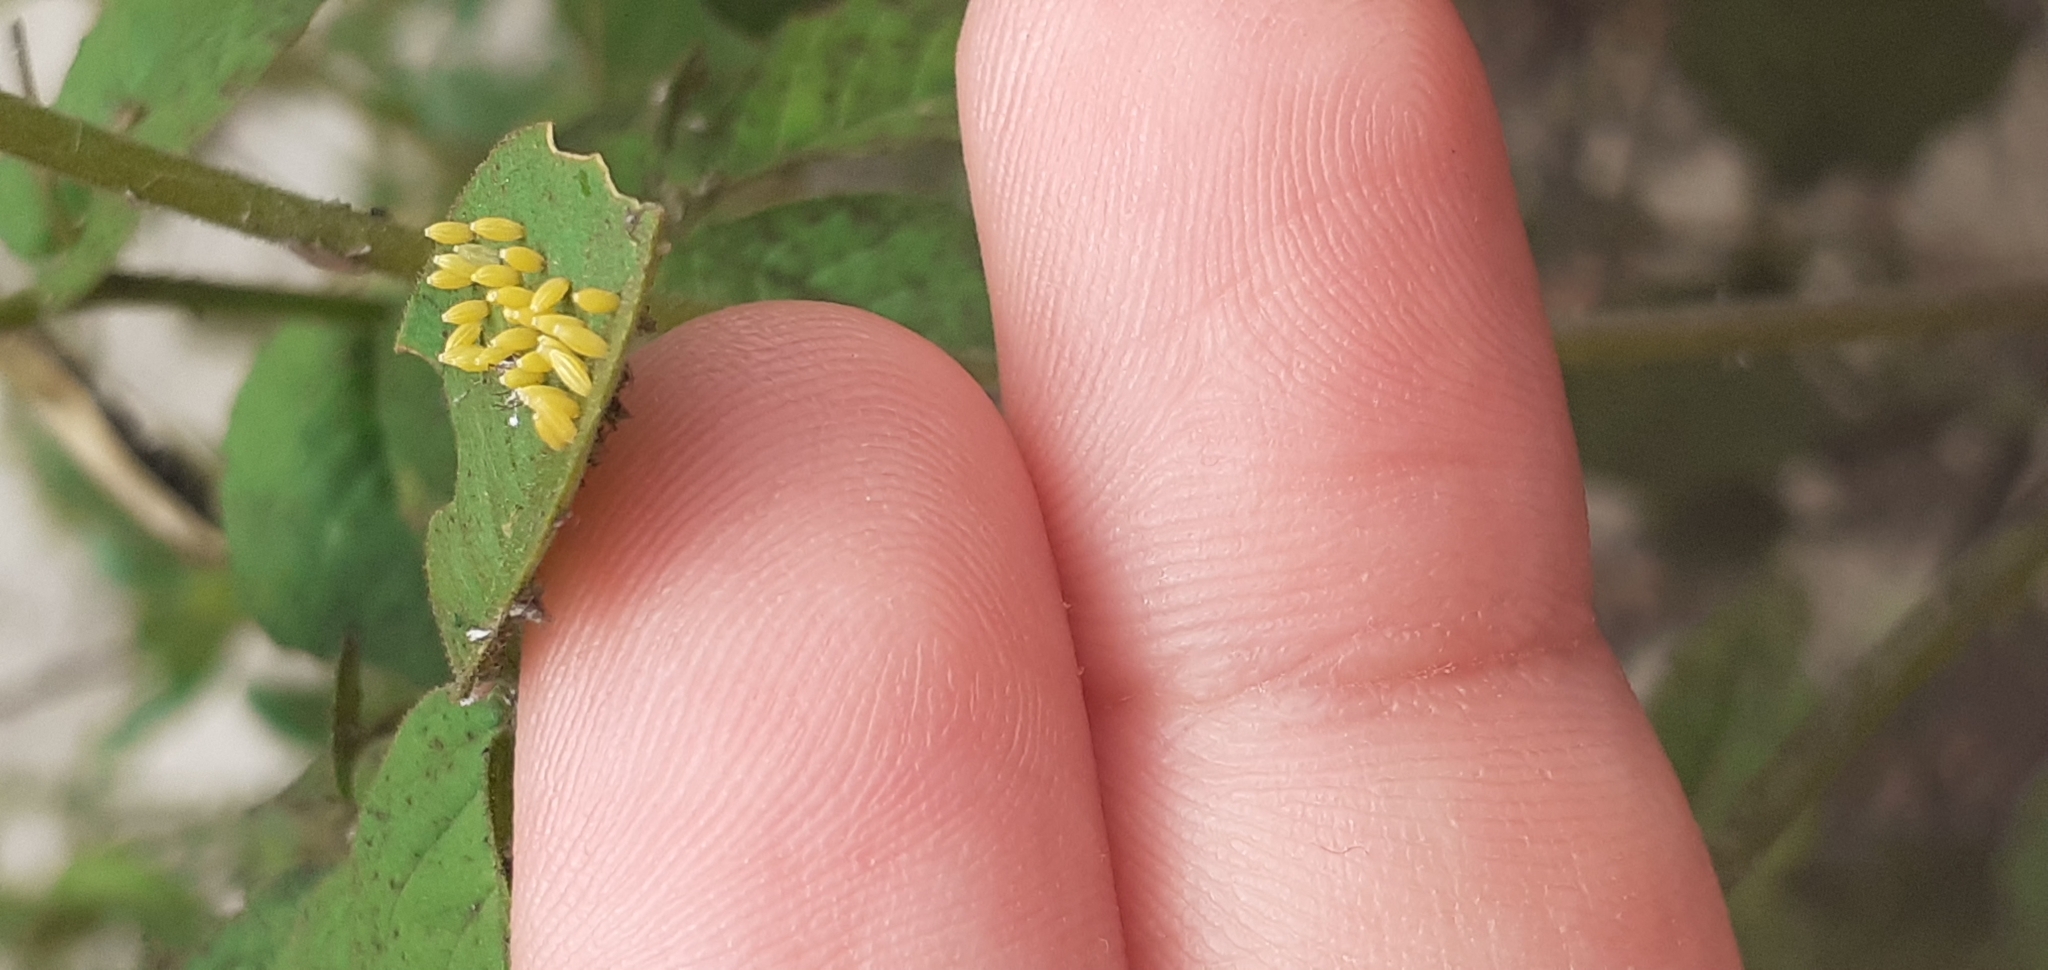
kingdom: Animalia
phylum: Arthropoda
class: Insecta
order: Lepidoptera
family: Pieridae
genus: Ascia
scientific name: Ascia monuste
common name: Great southern white
